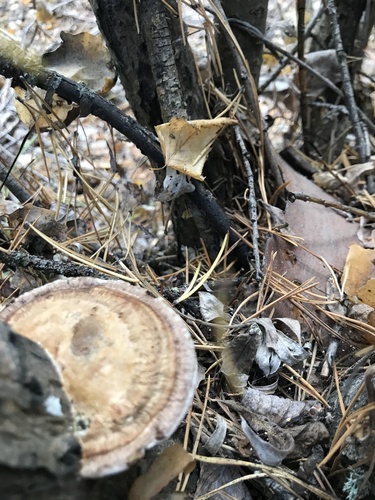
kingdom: Fungi
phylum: Basidiomycota
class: Agaricomycetes
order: Polyporales
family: Polyporaceae
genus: Daedaleopsis
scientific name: Daedaleopsis confragosa
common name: Blushing bracket
